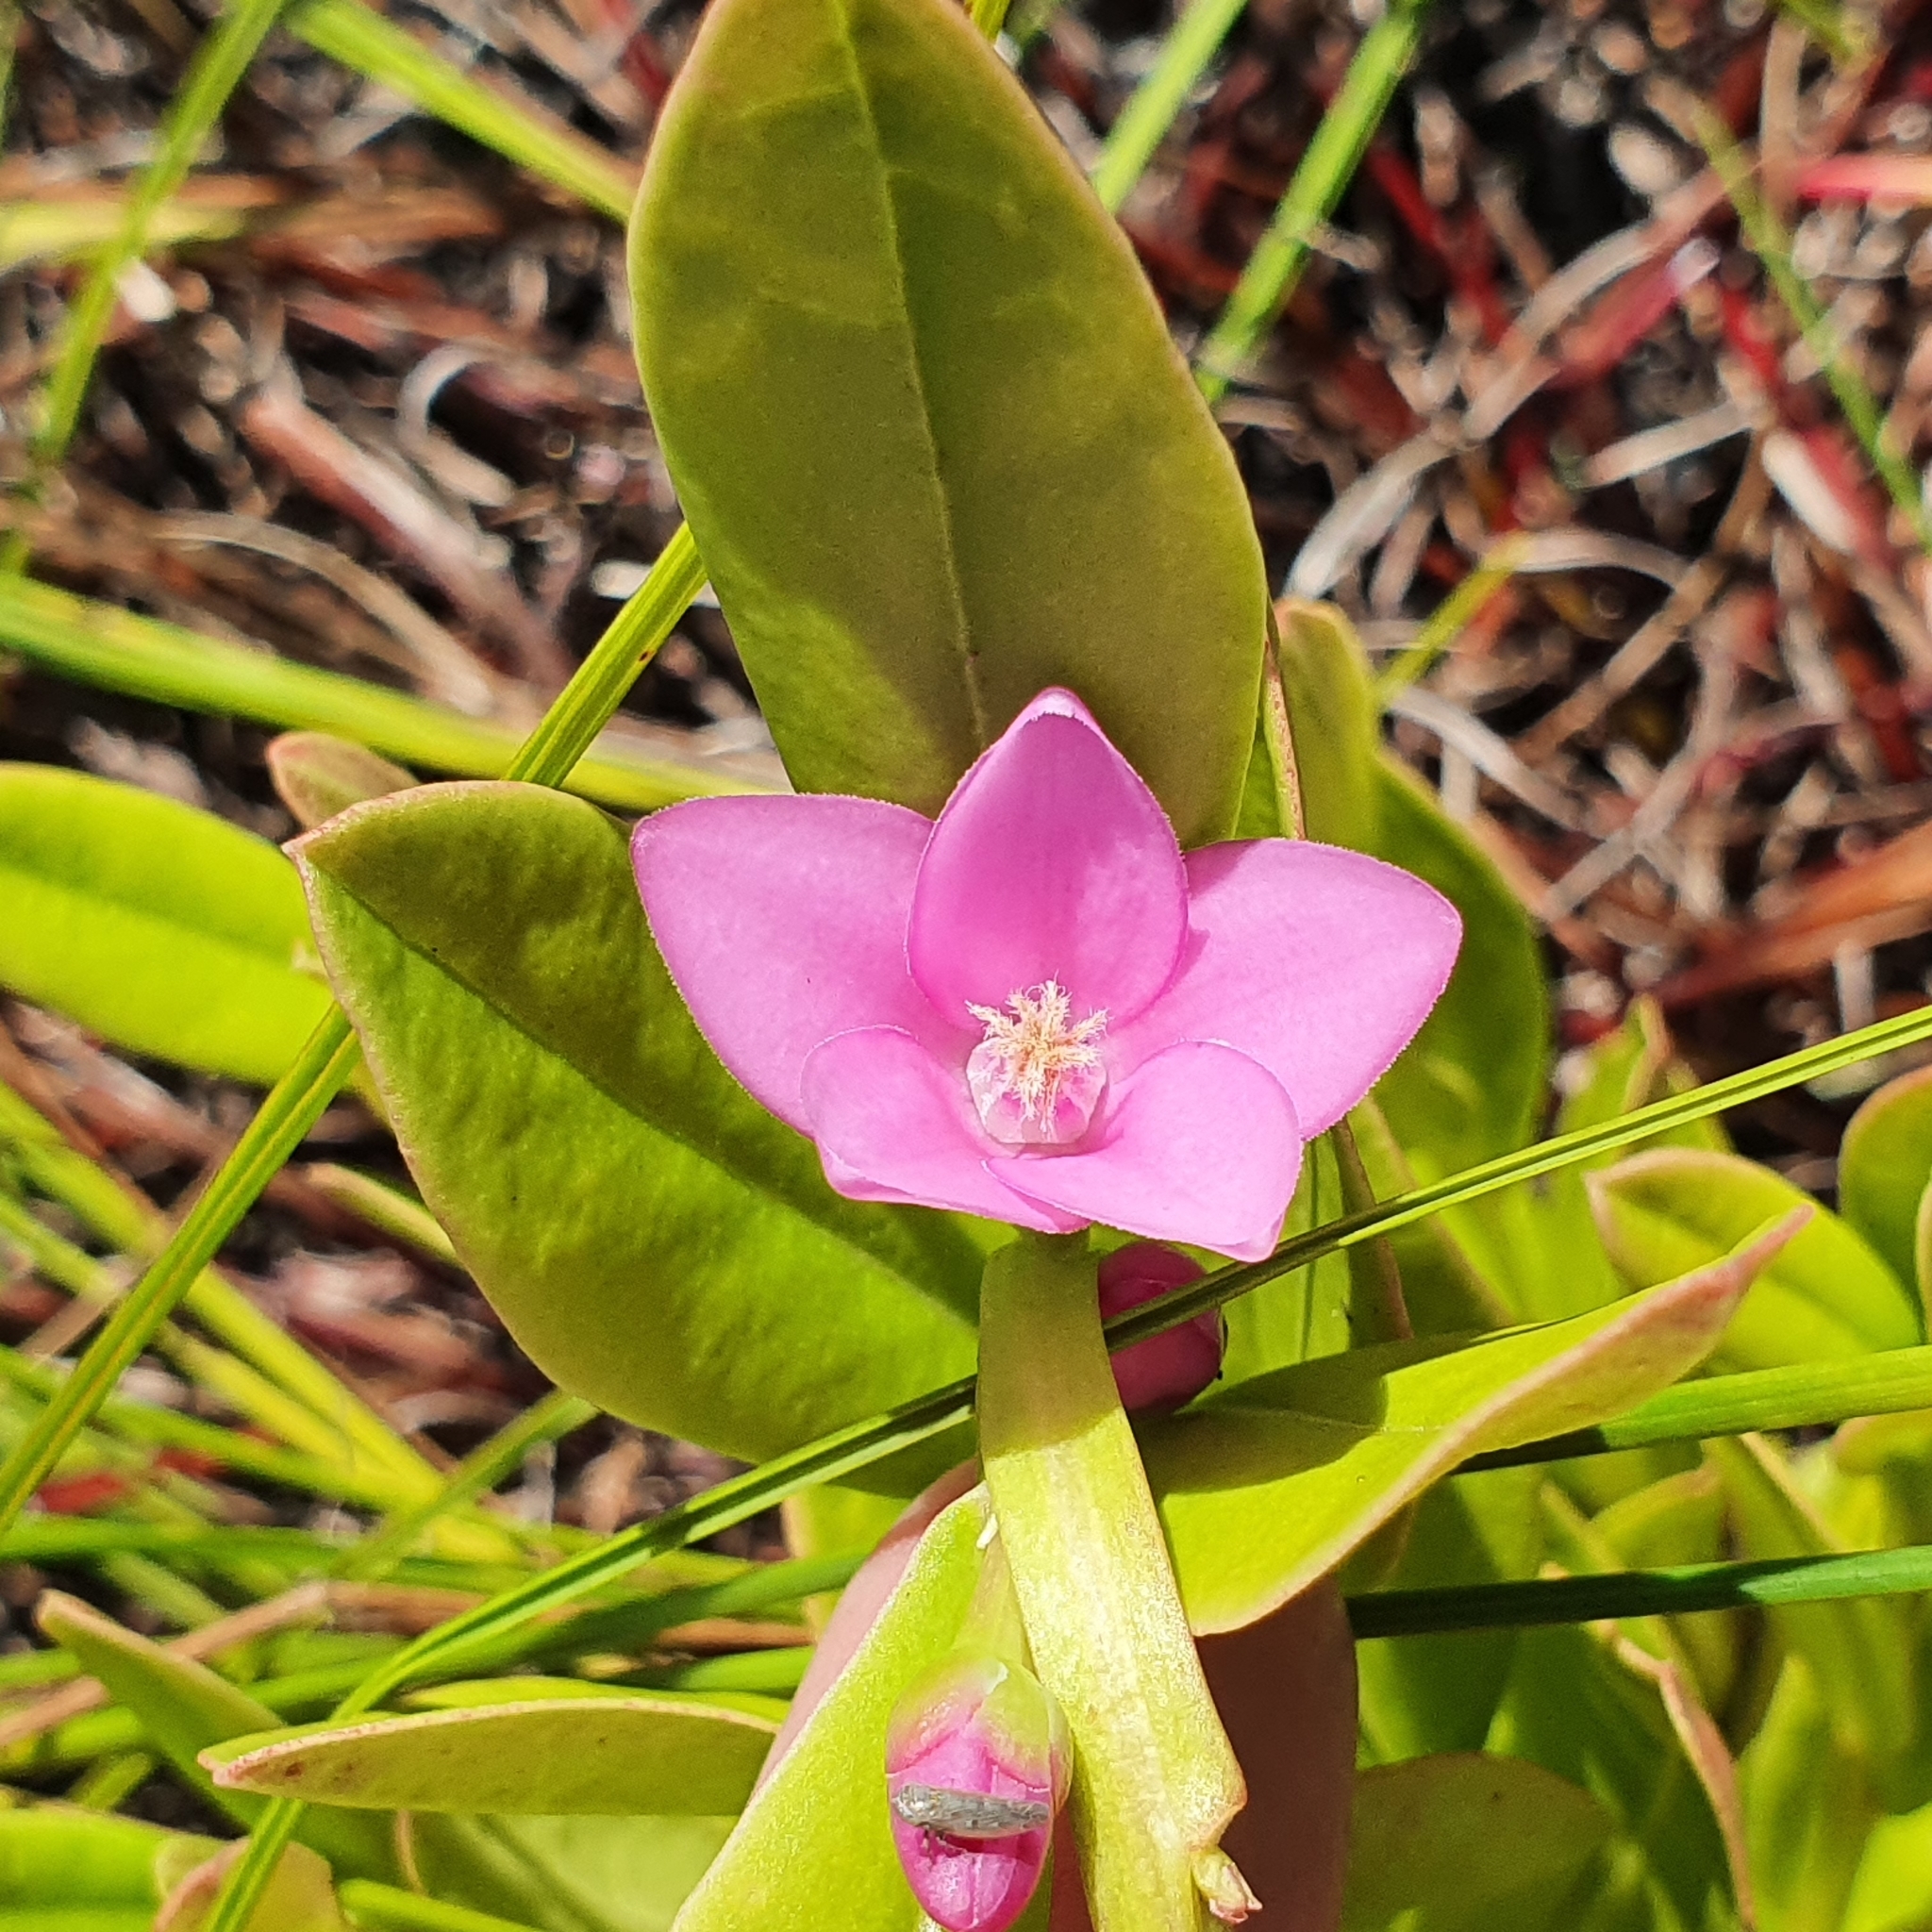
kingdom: Plantae
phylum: Tracheophyta
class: Magnoliopsida
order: Sapindales
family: Rutaceae
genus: Crowea
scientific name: Crowea saligna
